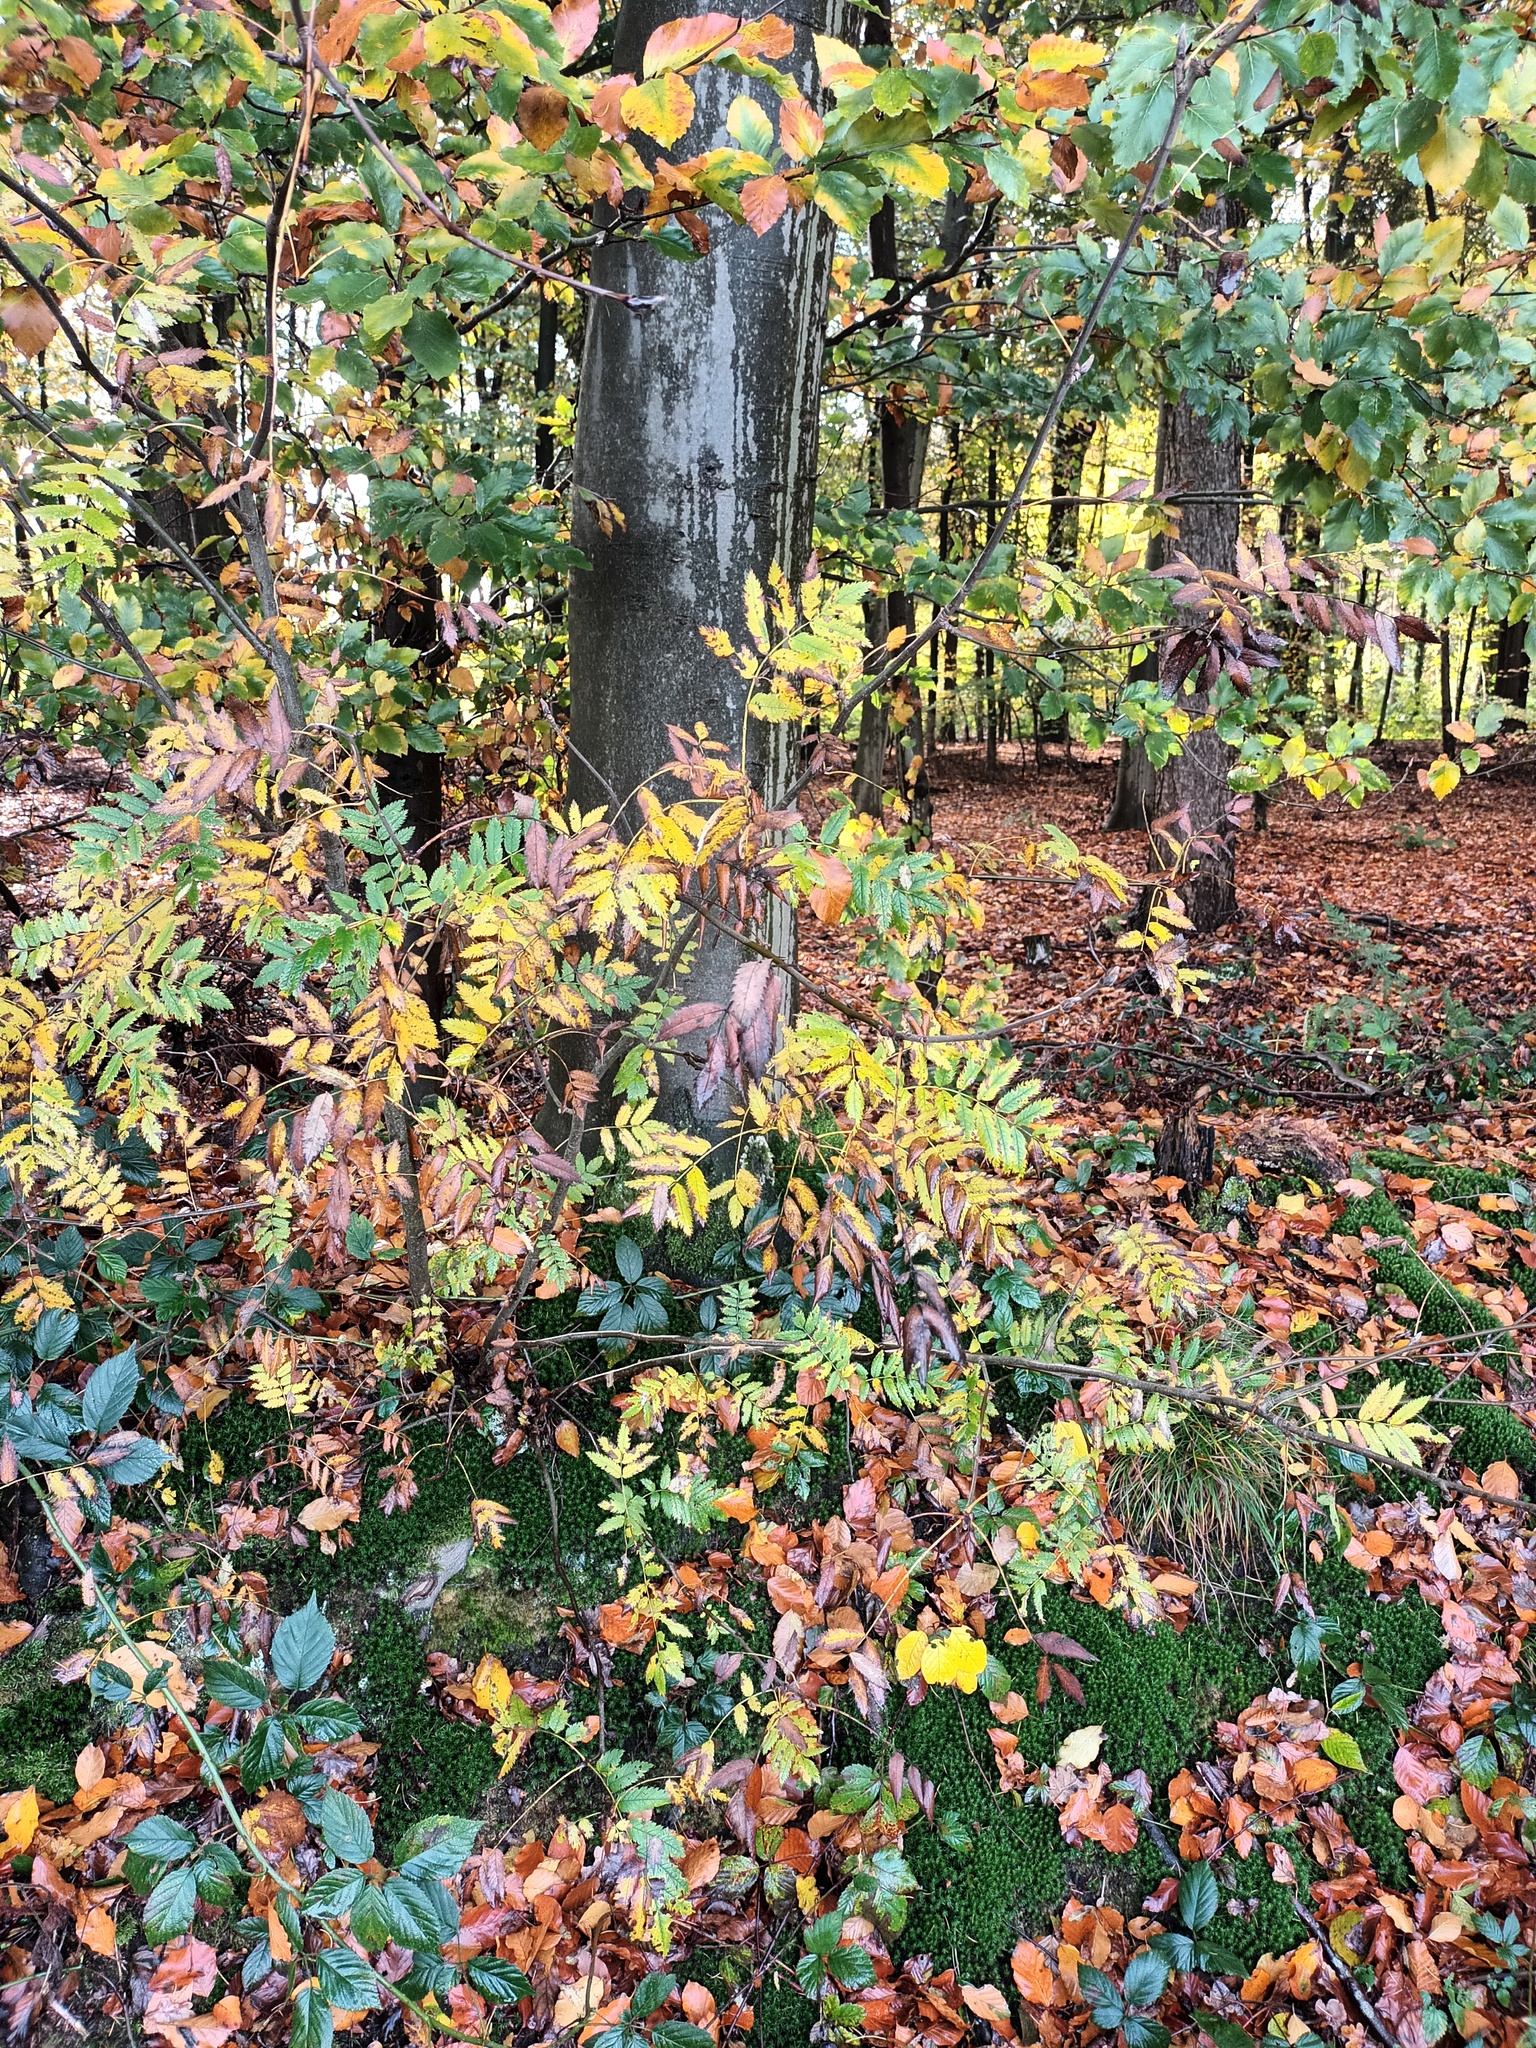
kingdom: Plantae
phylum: Tracheophyta
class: Magnoliopsida
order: Rosales
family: Rosaceae
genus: Sorbus
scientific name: Sorbus aucuparia
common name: Rowan
